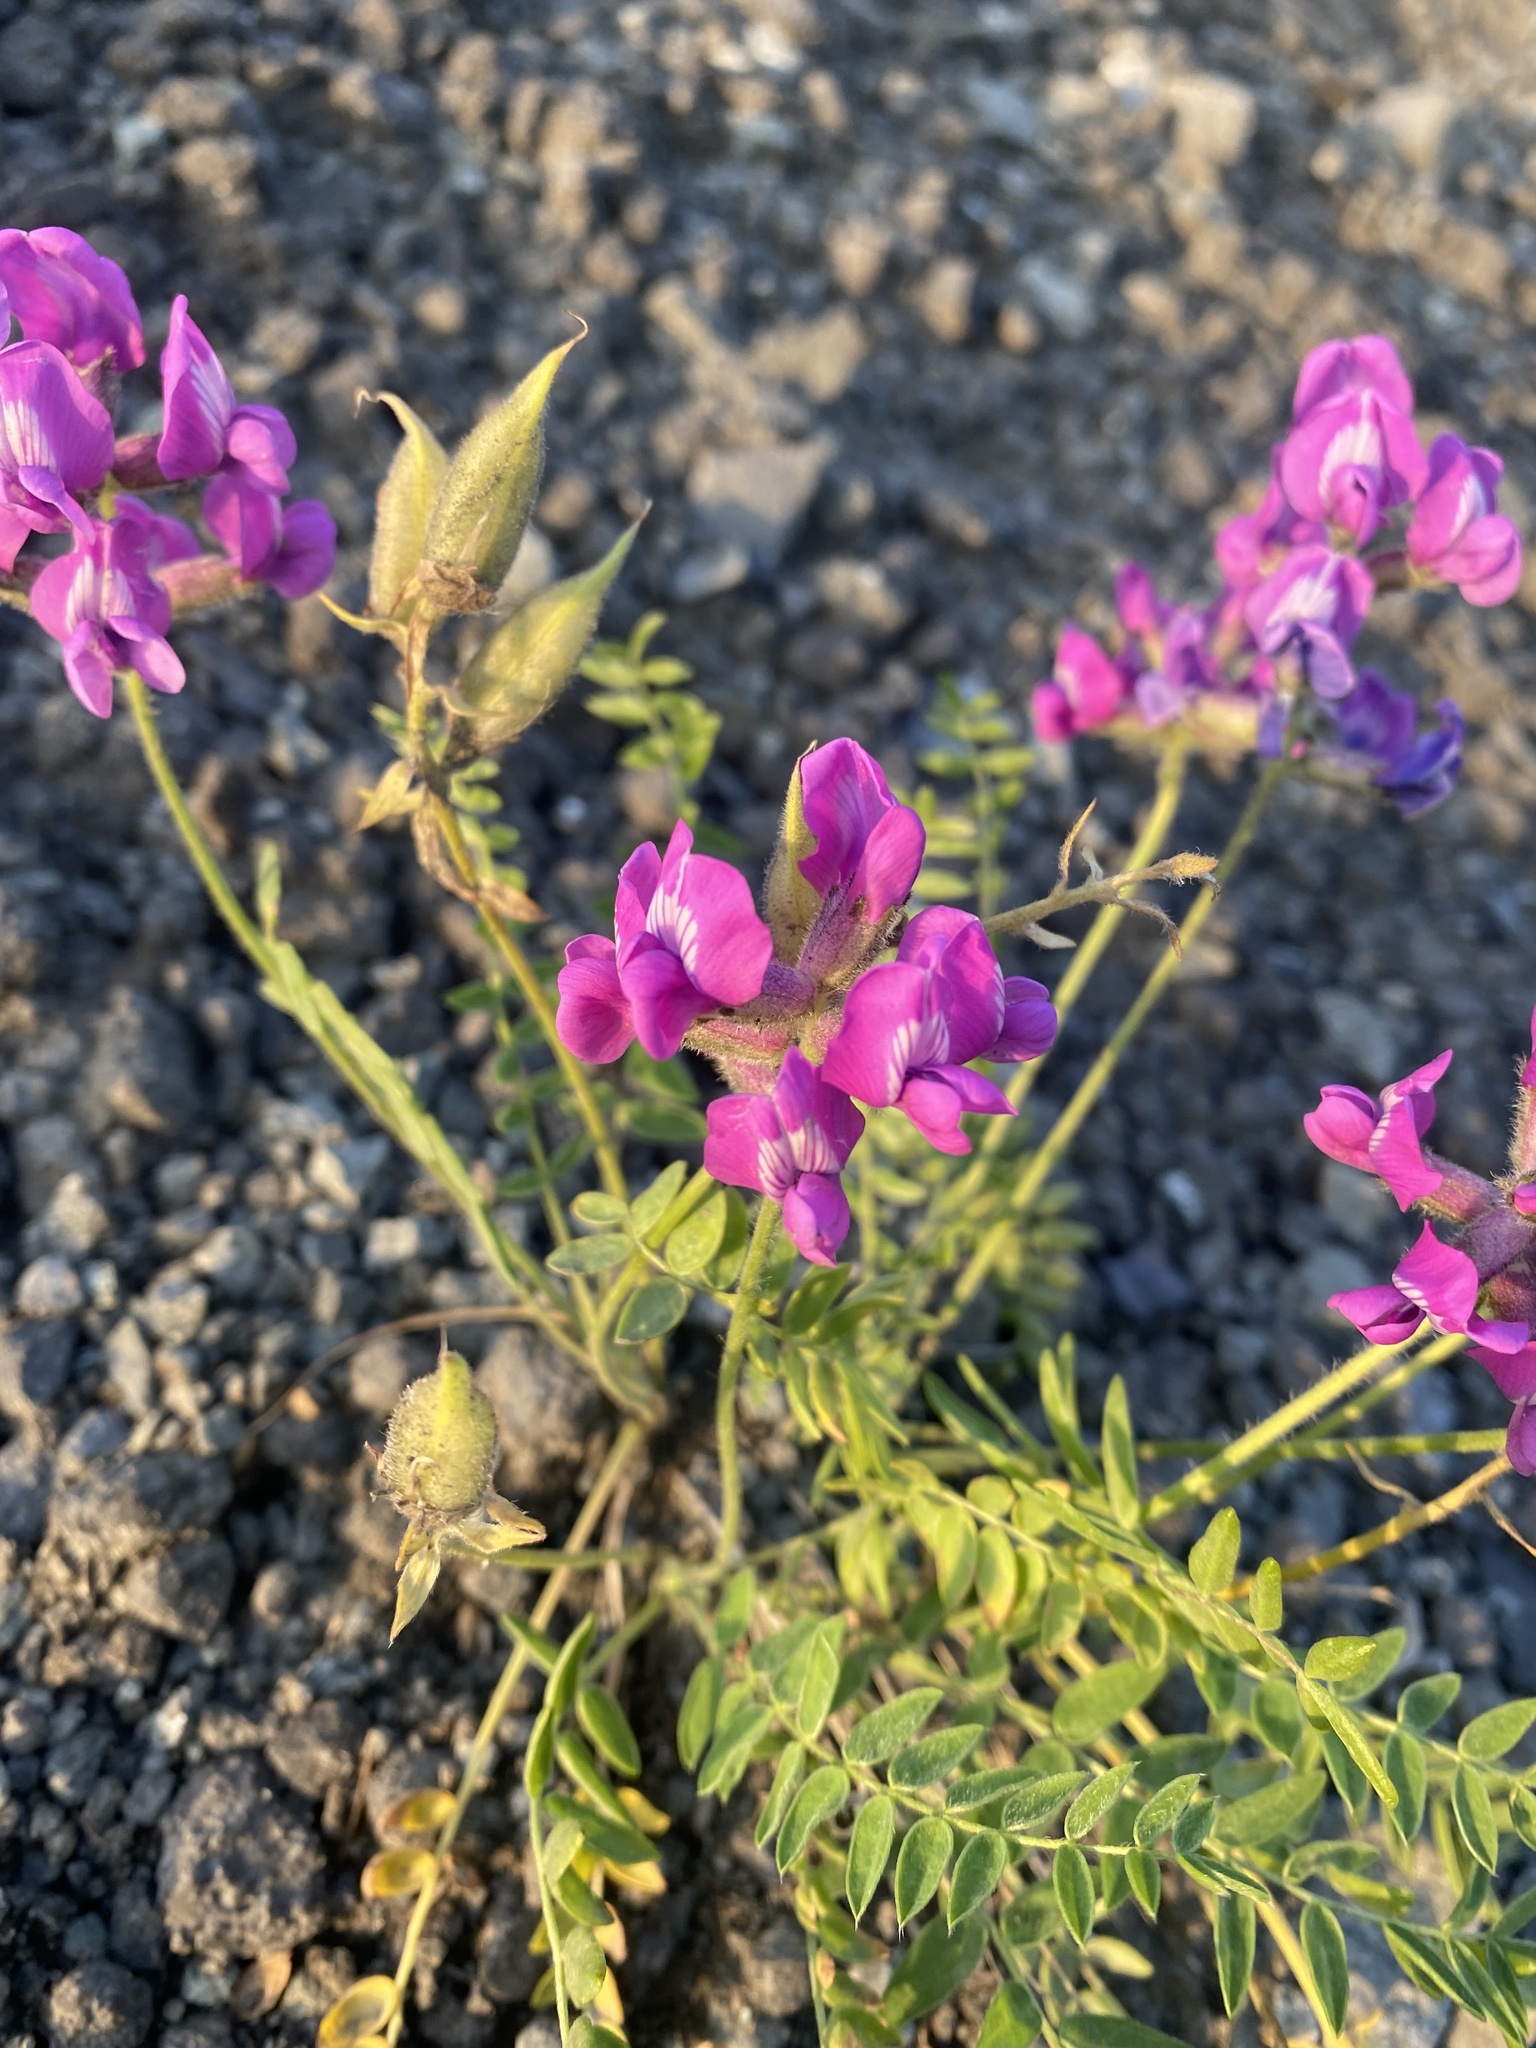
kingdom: Plantae
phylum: Tracheophyta
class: Magnoliopsida
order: Fabales
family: Fabaceae
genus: Oxytropis
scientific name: Oxytropis arctica
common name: Arctic locoweed
